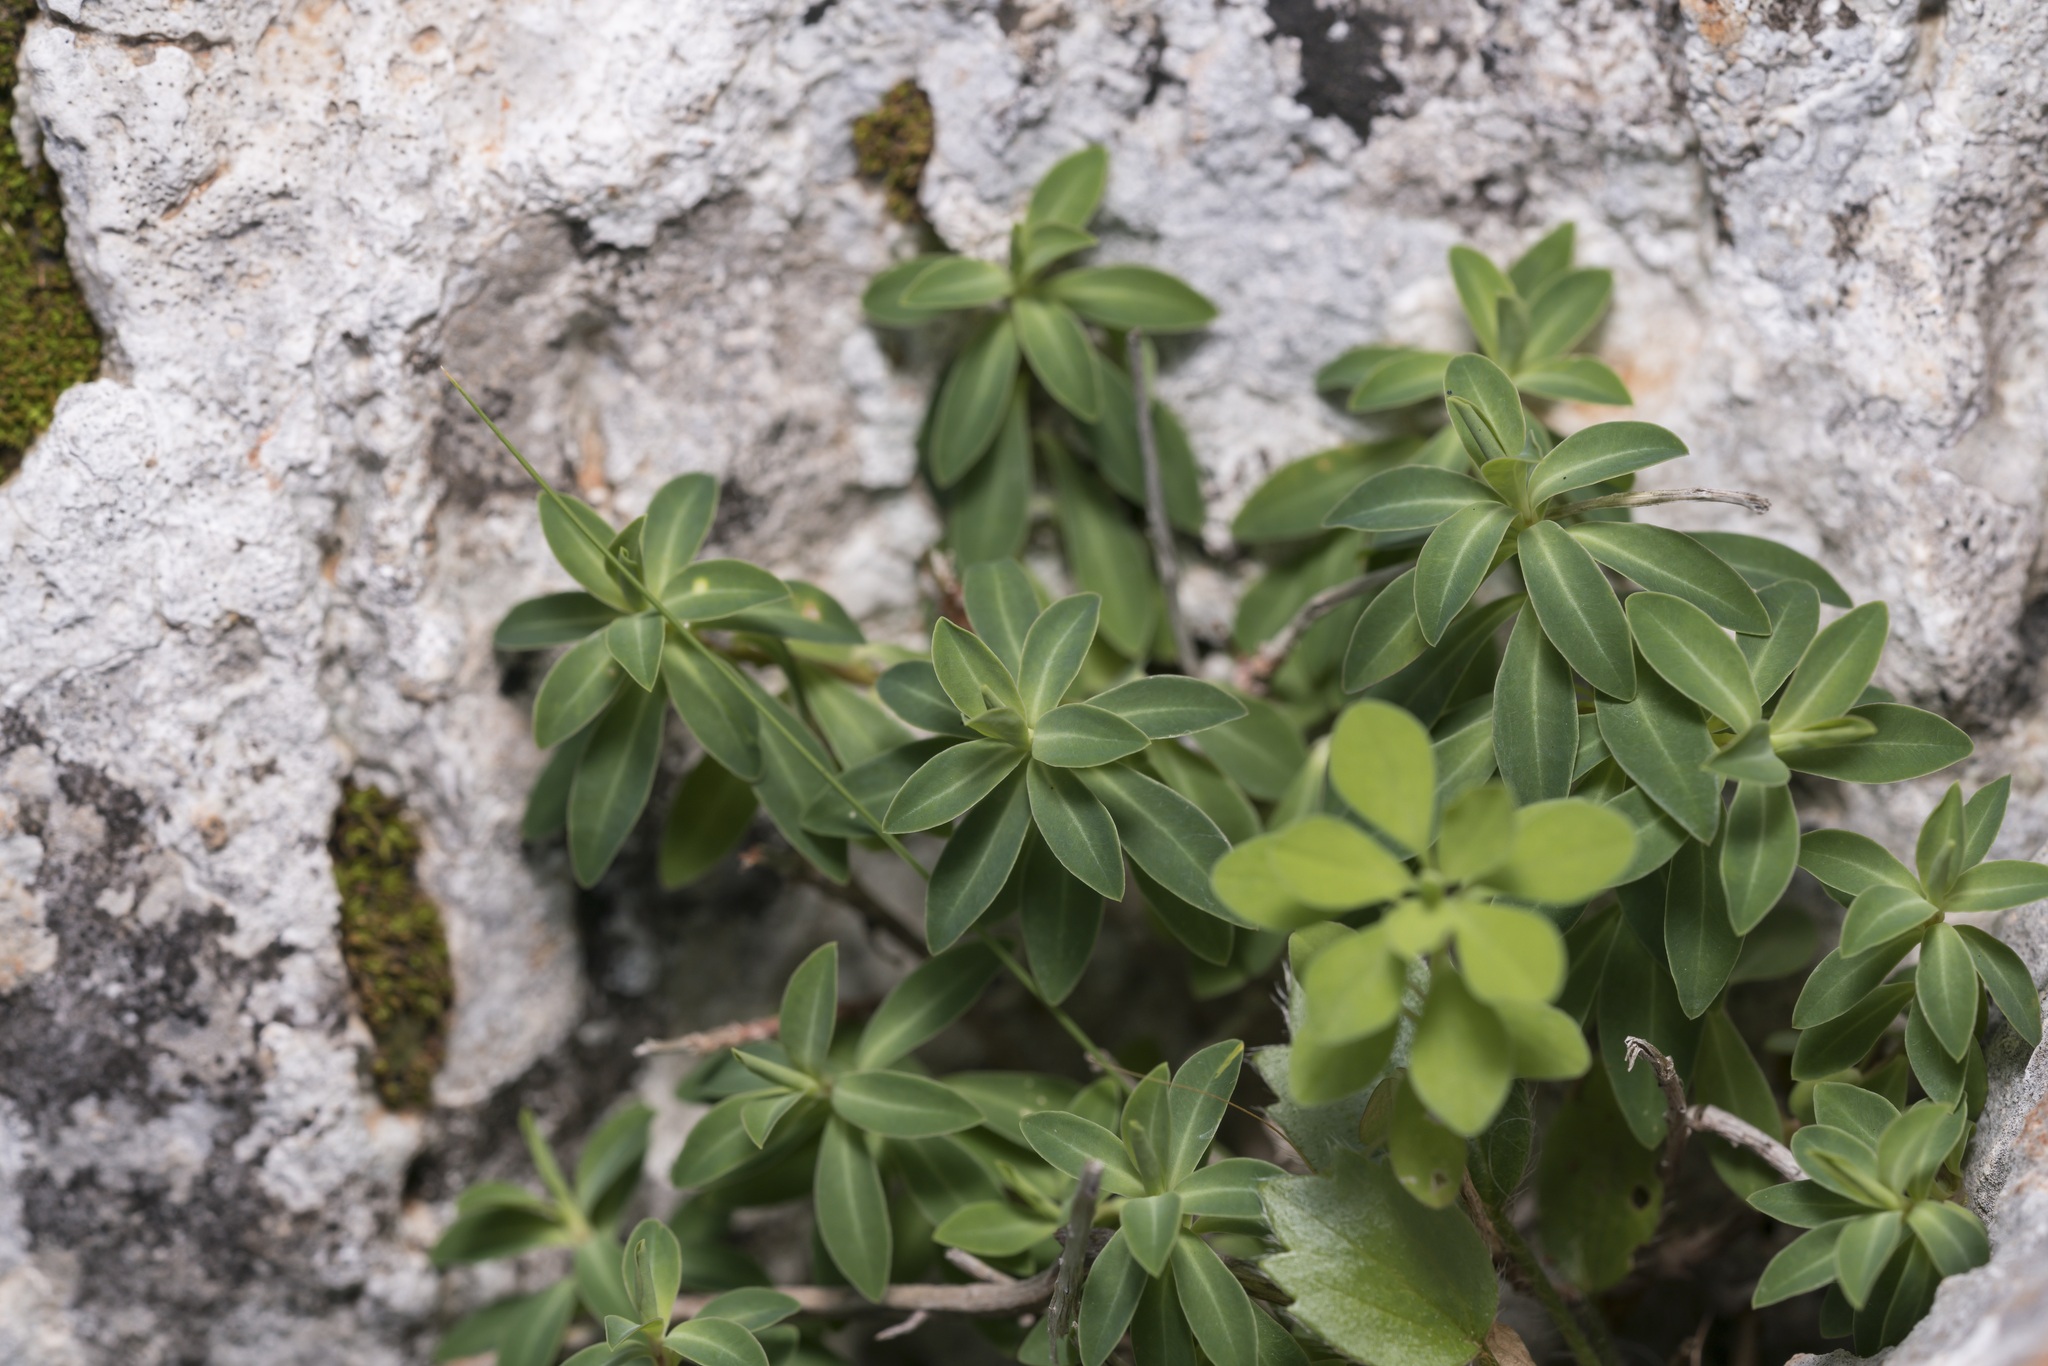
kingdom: Plantae
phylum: Tracheophyta
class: Magnoliopsida
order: Malpighiales
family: Euphorbiaceae
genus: Euphorbia
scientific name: Euphorbia acanthothamnos
